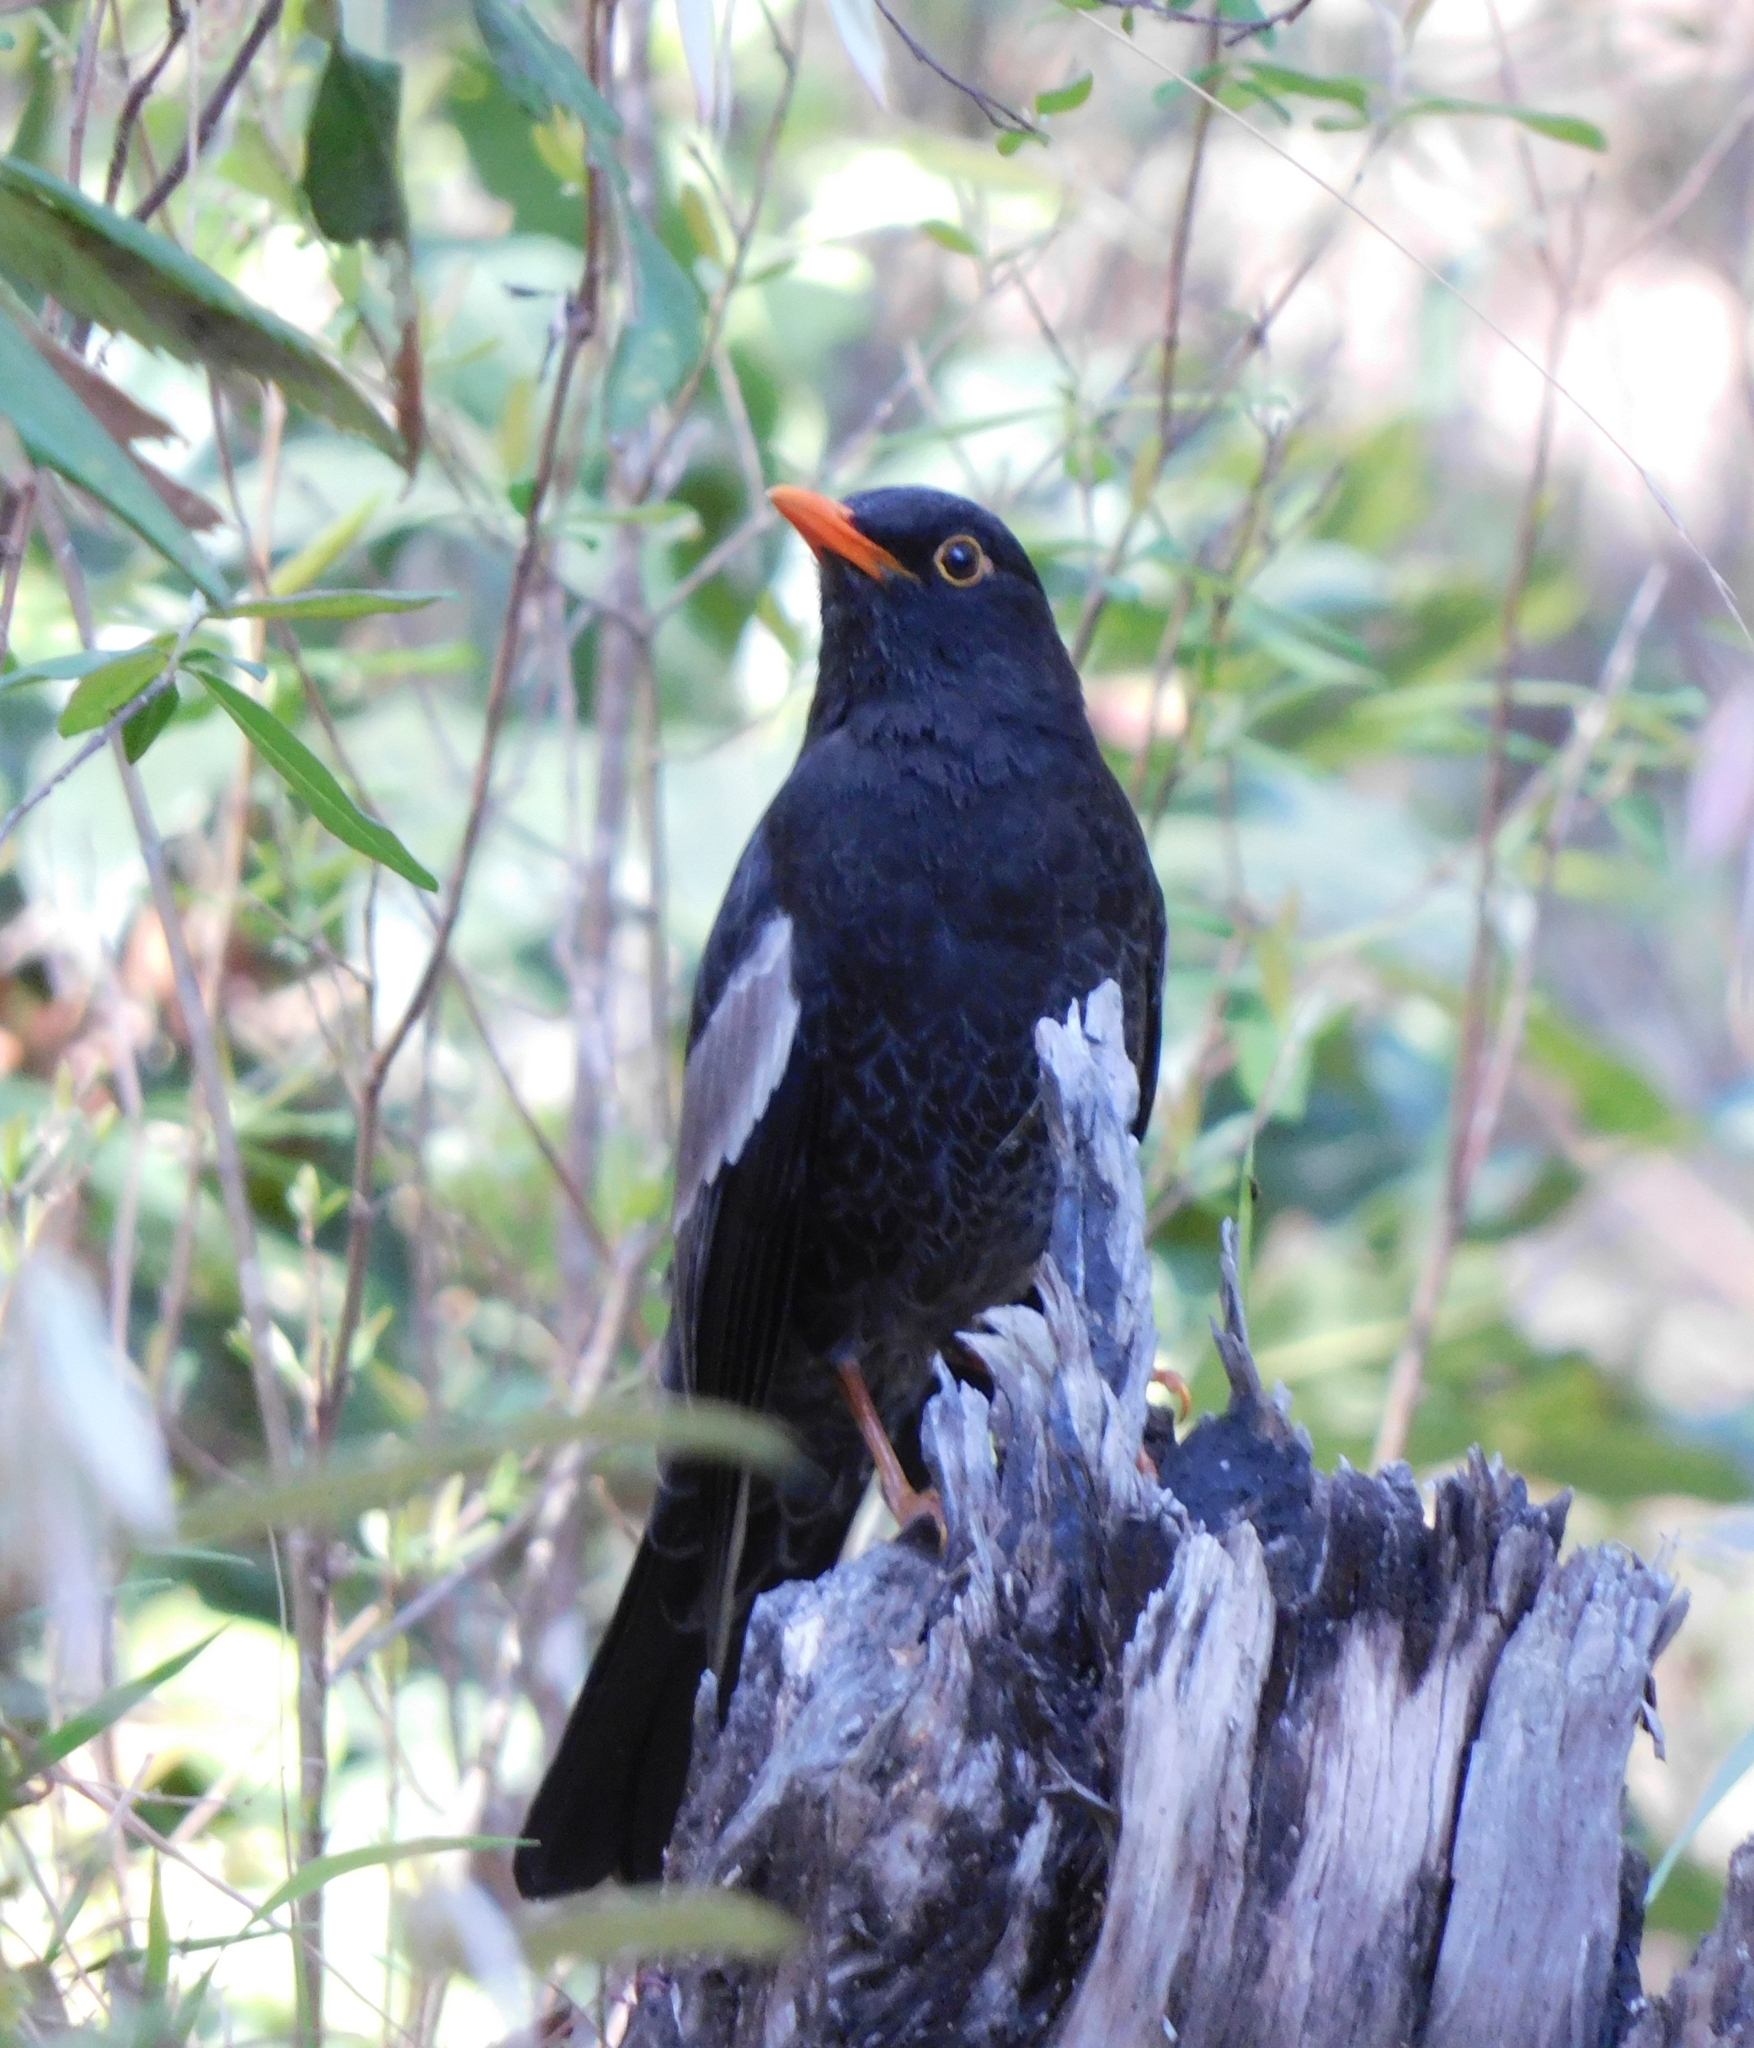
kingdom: Animalia
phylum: Chordata
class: Aves
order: Passeriformes
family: Turdidae
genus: Turdus
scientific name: Turdus boulboul
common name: Grey-winged blackbird
